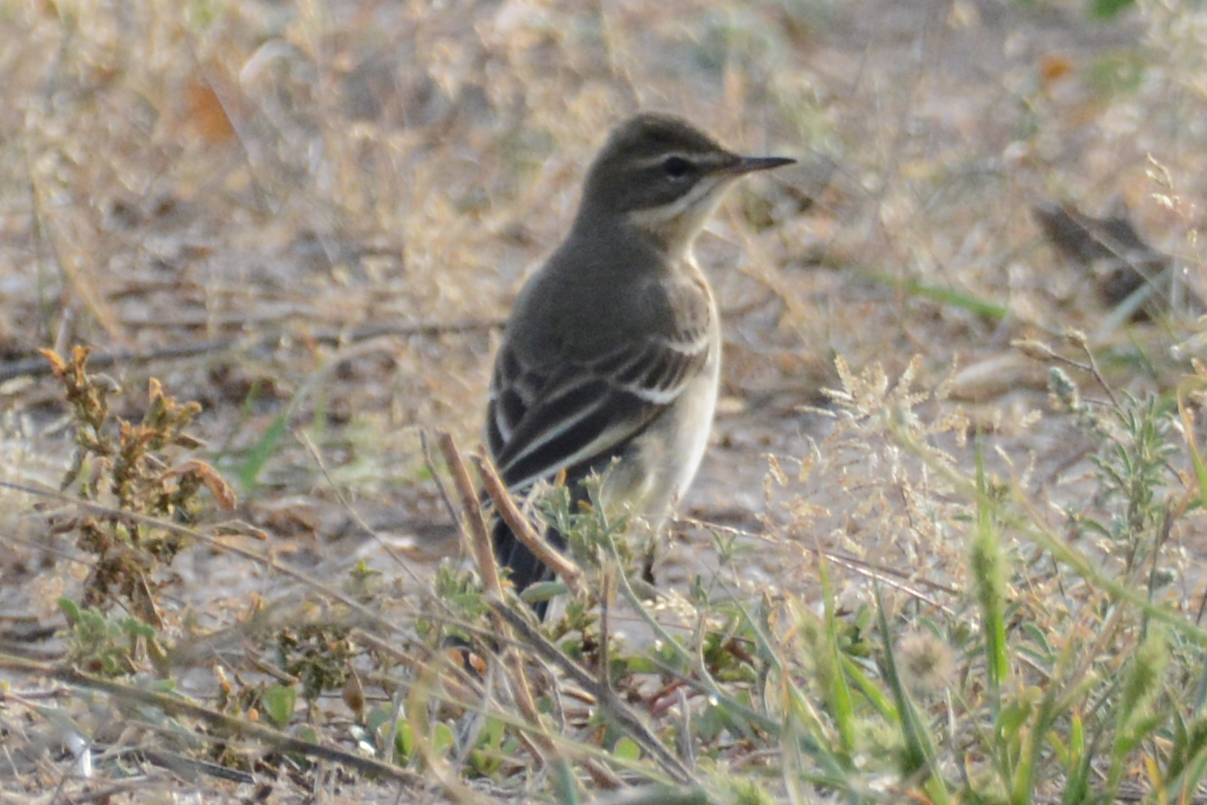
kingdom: Animalia
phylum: Chordata
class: Aves
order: Passeriformes
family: Motacillidae
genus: Motacilla
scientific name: Motacilla flava
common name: Western yellow wagtail
